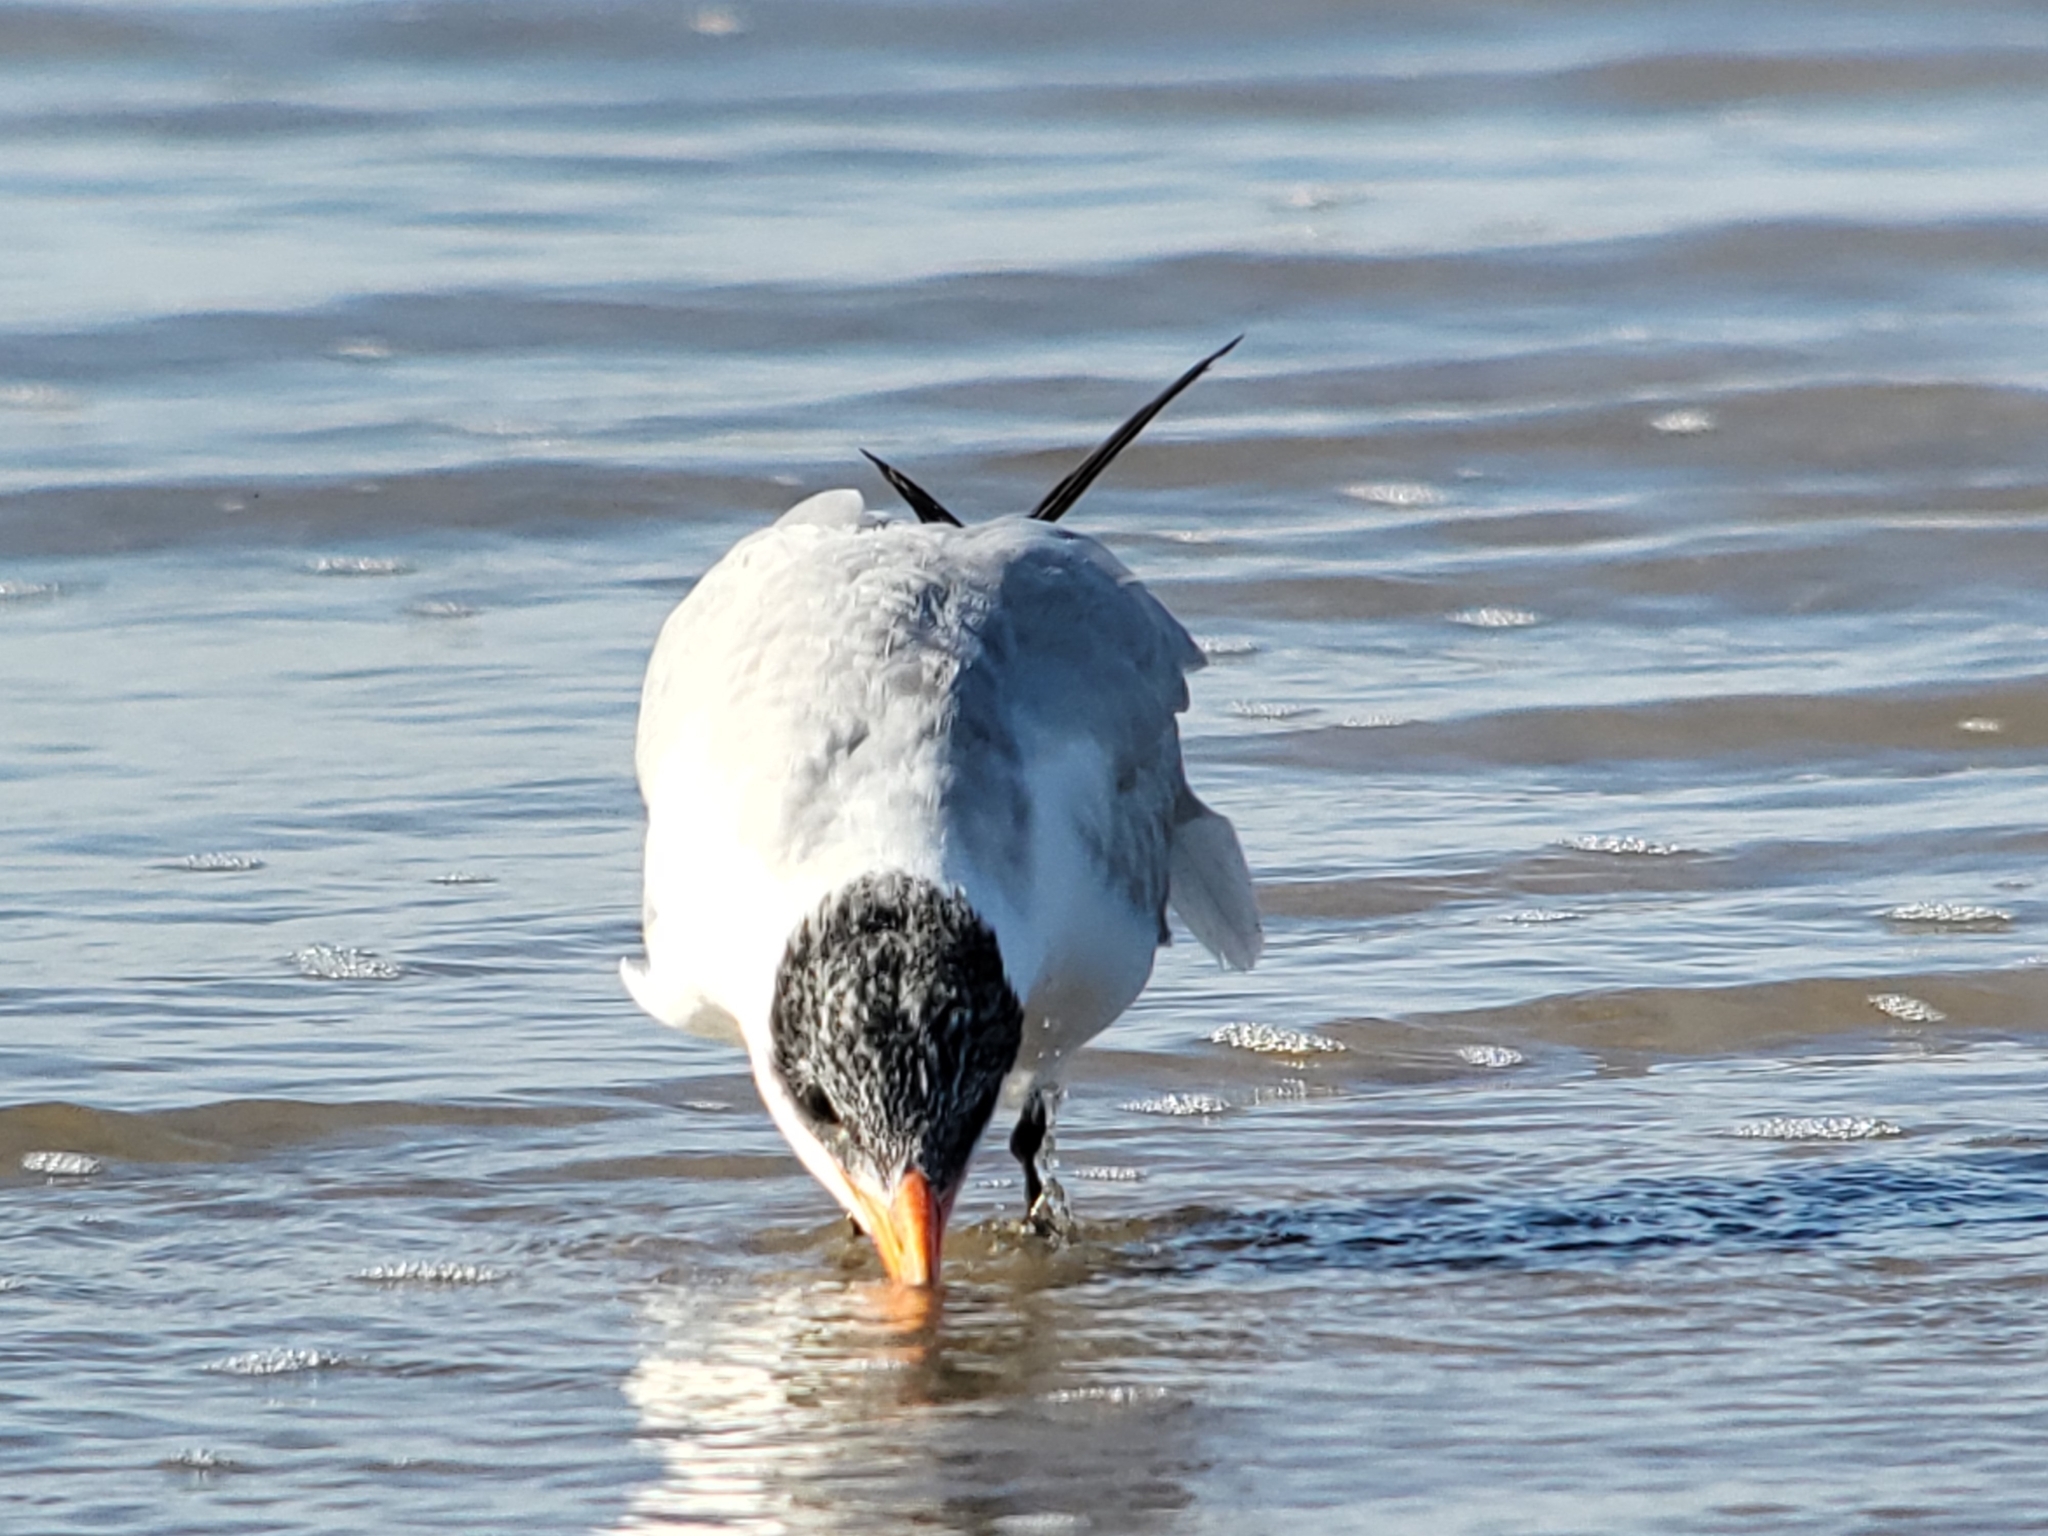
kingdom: Animalia
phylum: Chordata
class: Aves
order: Charadriiformes
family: Laridae
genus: Hydroprogne
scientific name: Hydroprogne caspia
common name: Caspian tern
